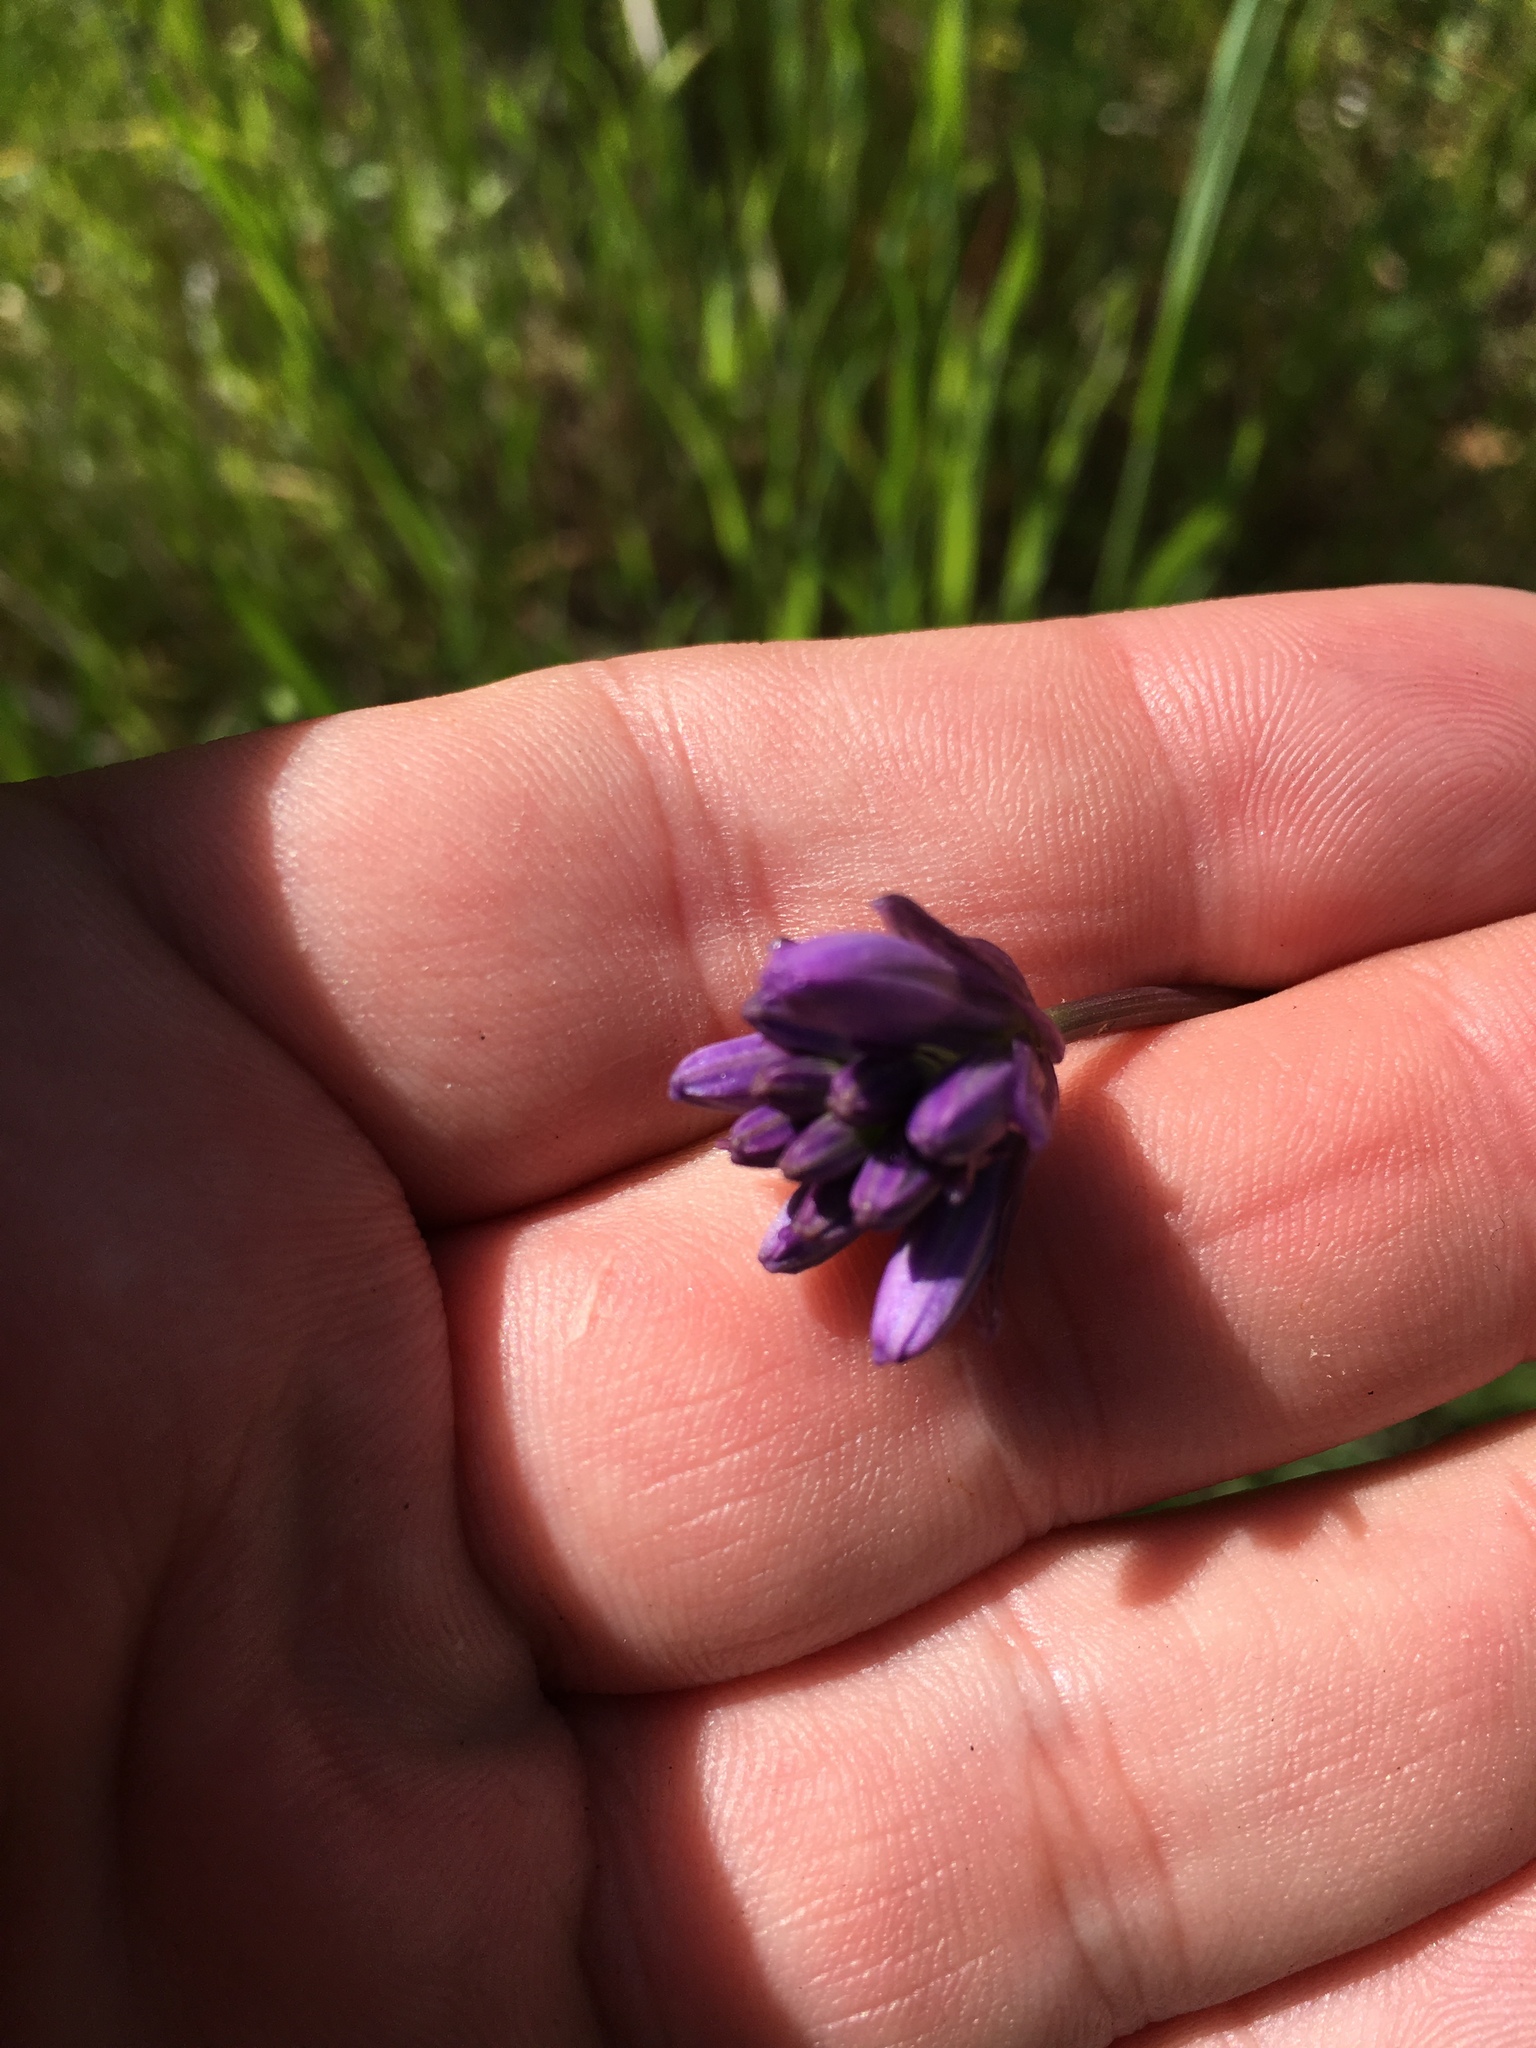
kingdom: Plantae
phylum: Tracheophyta
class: Liliopsida
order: Asparagales
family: Asparagaceae
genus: Dipterostemon
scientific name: Dipterostemon capitatus
